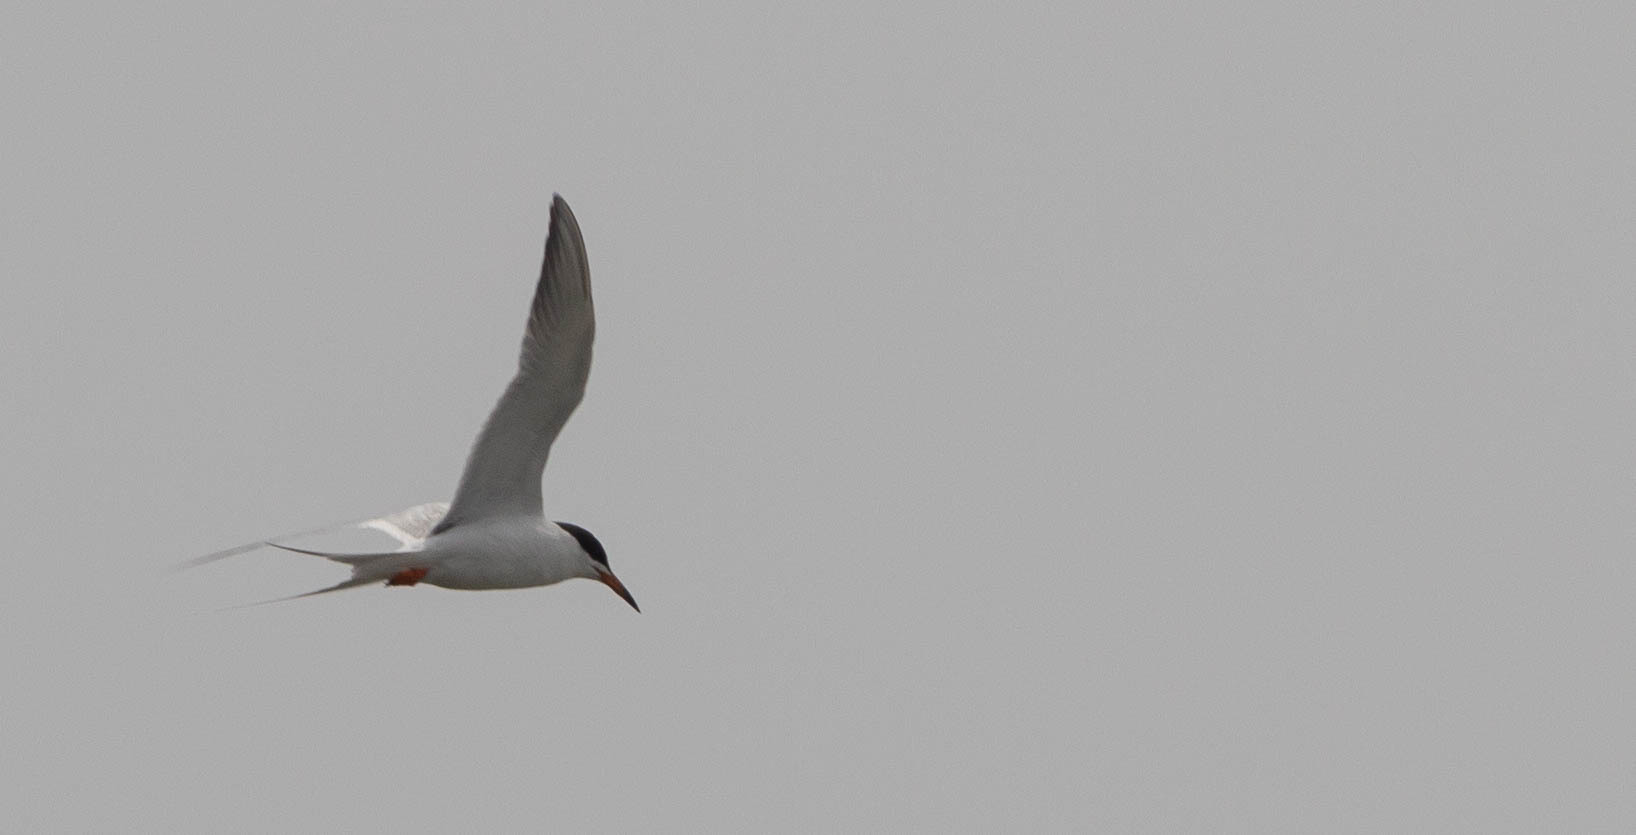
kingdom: Animalia
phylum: Chordata
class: Aves
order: Charadriiformes
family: Laridae
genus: Sterna
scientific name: Sterna forsteri
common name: Forster's tern
